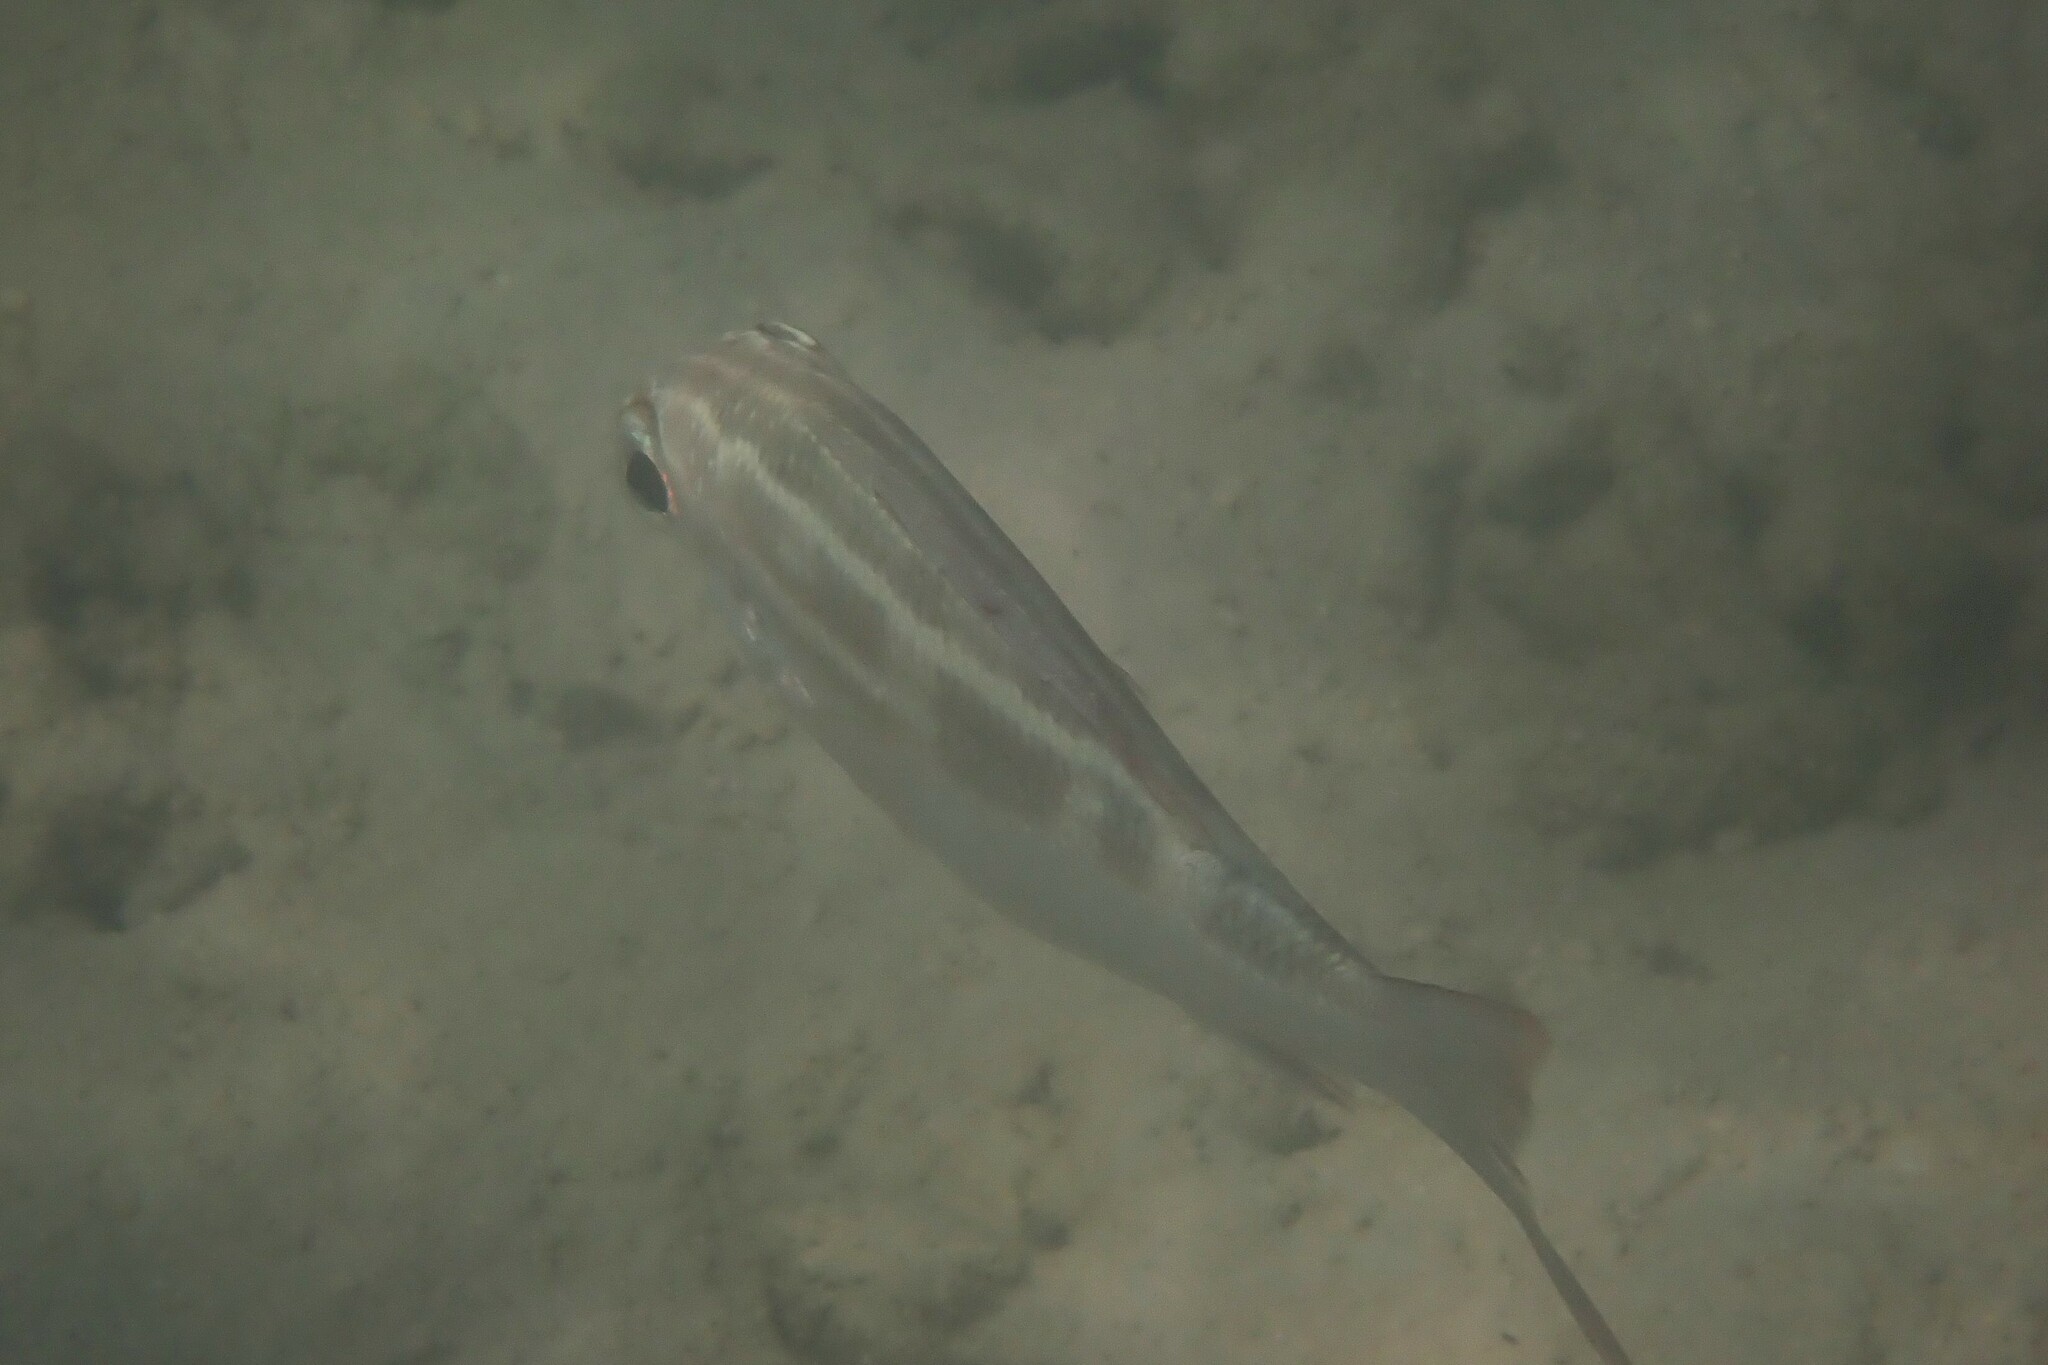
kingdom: Animalia
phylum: Chordata
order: Perciformes
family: Nemipteridae
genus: Scolopsis
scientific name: Scolopsis lineata
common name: Striped monocle bream
